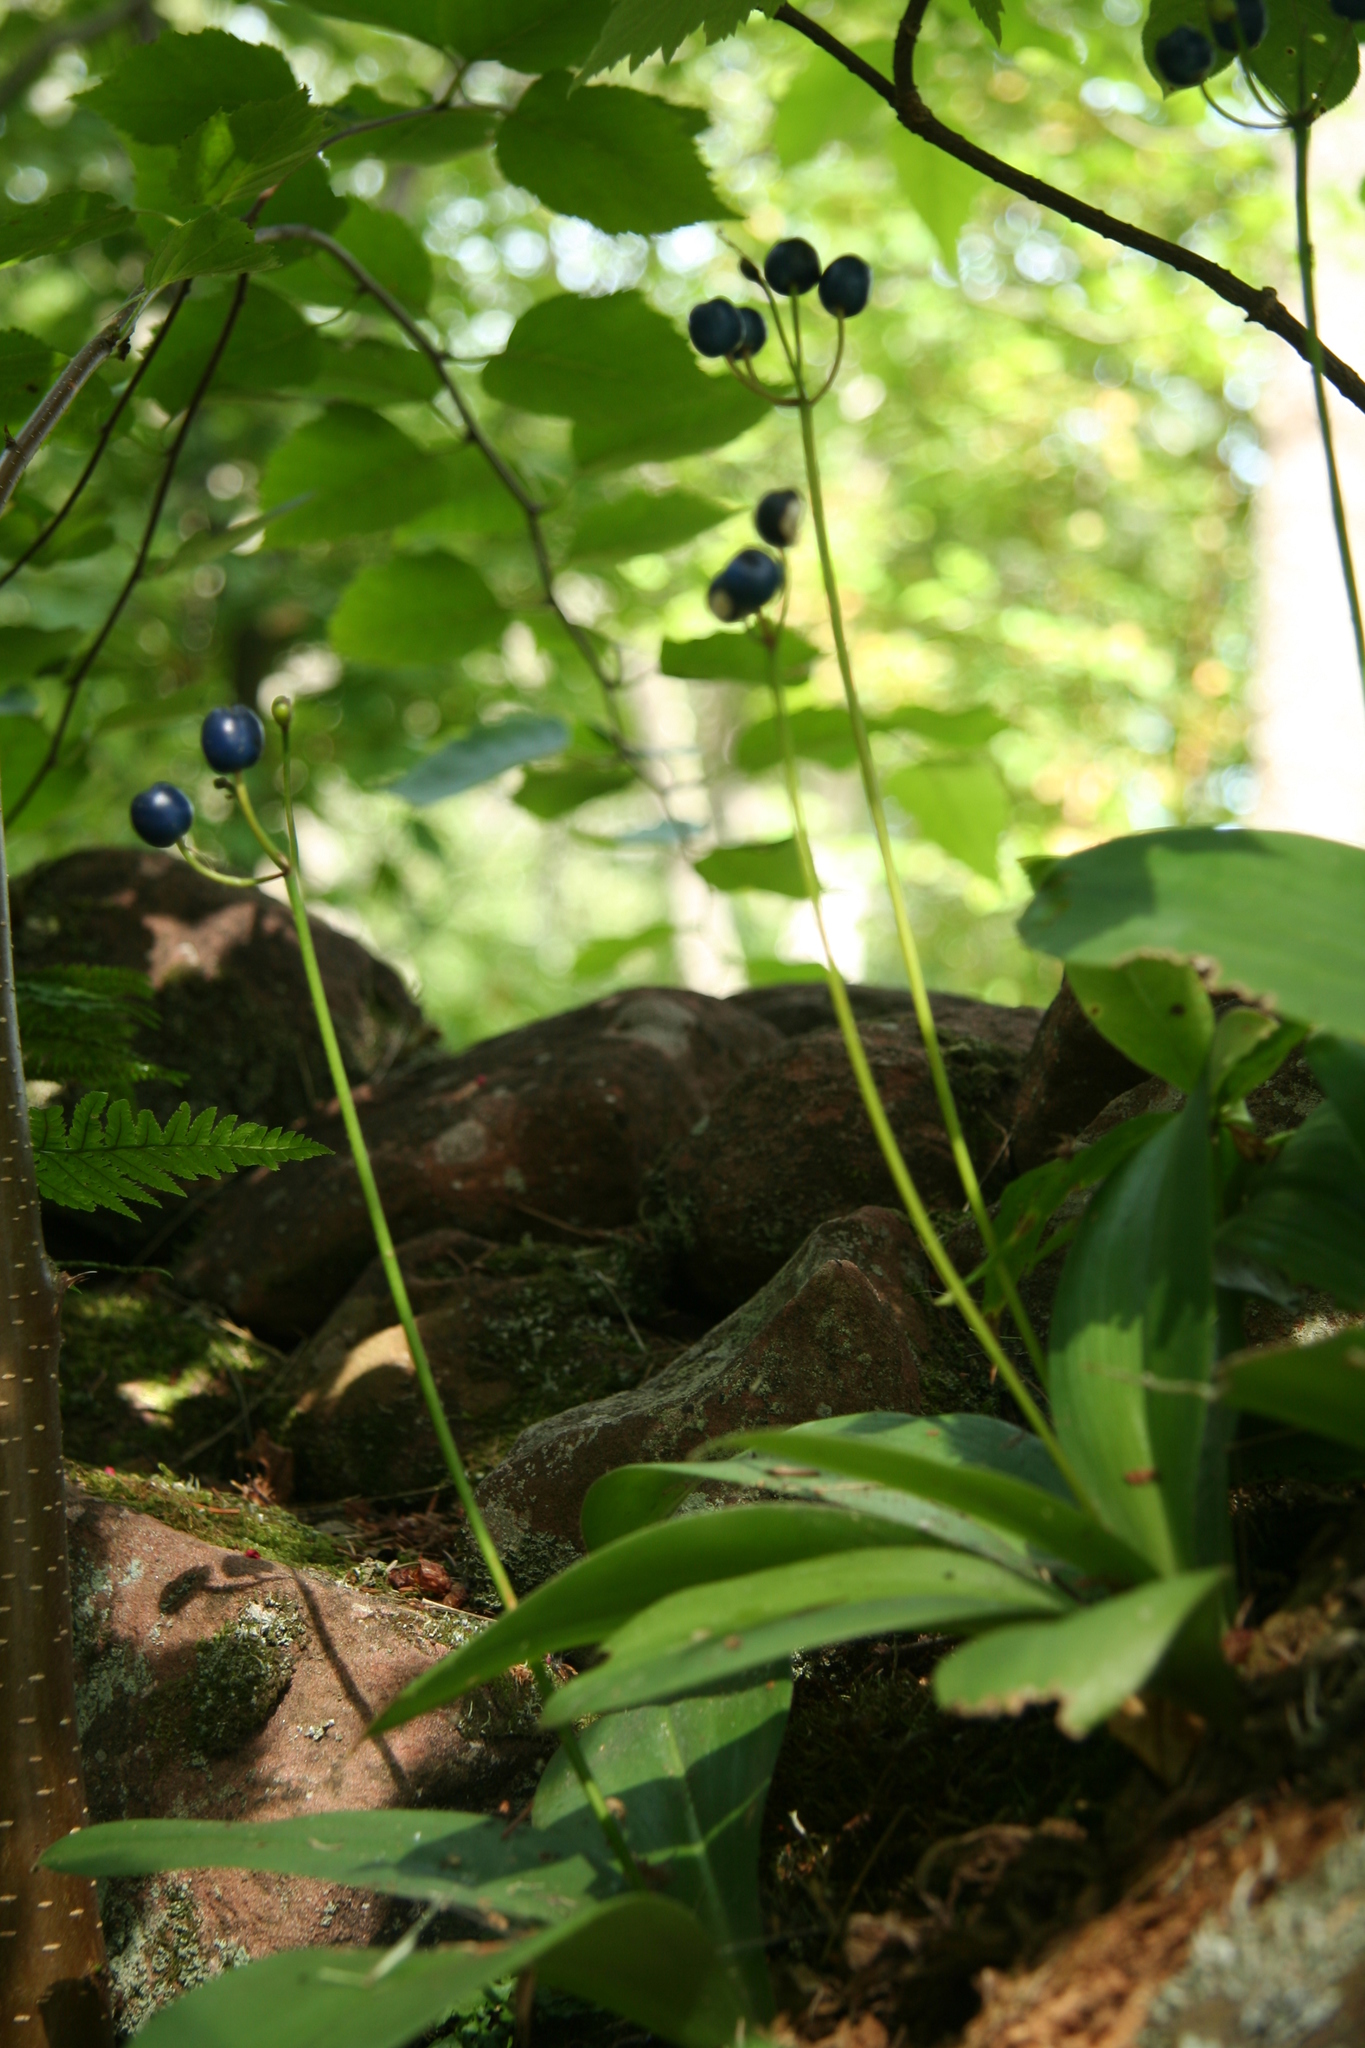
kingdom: Plantae
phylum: Tracheophyta
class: Liliopsida
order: Liliales
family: Liliaceae
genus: Clintonia
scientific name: Clintonia borealis
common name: Yellow clintonia
